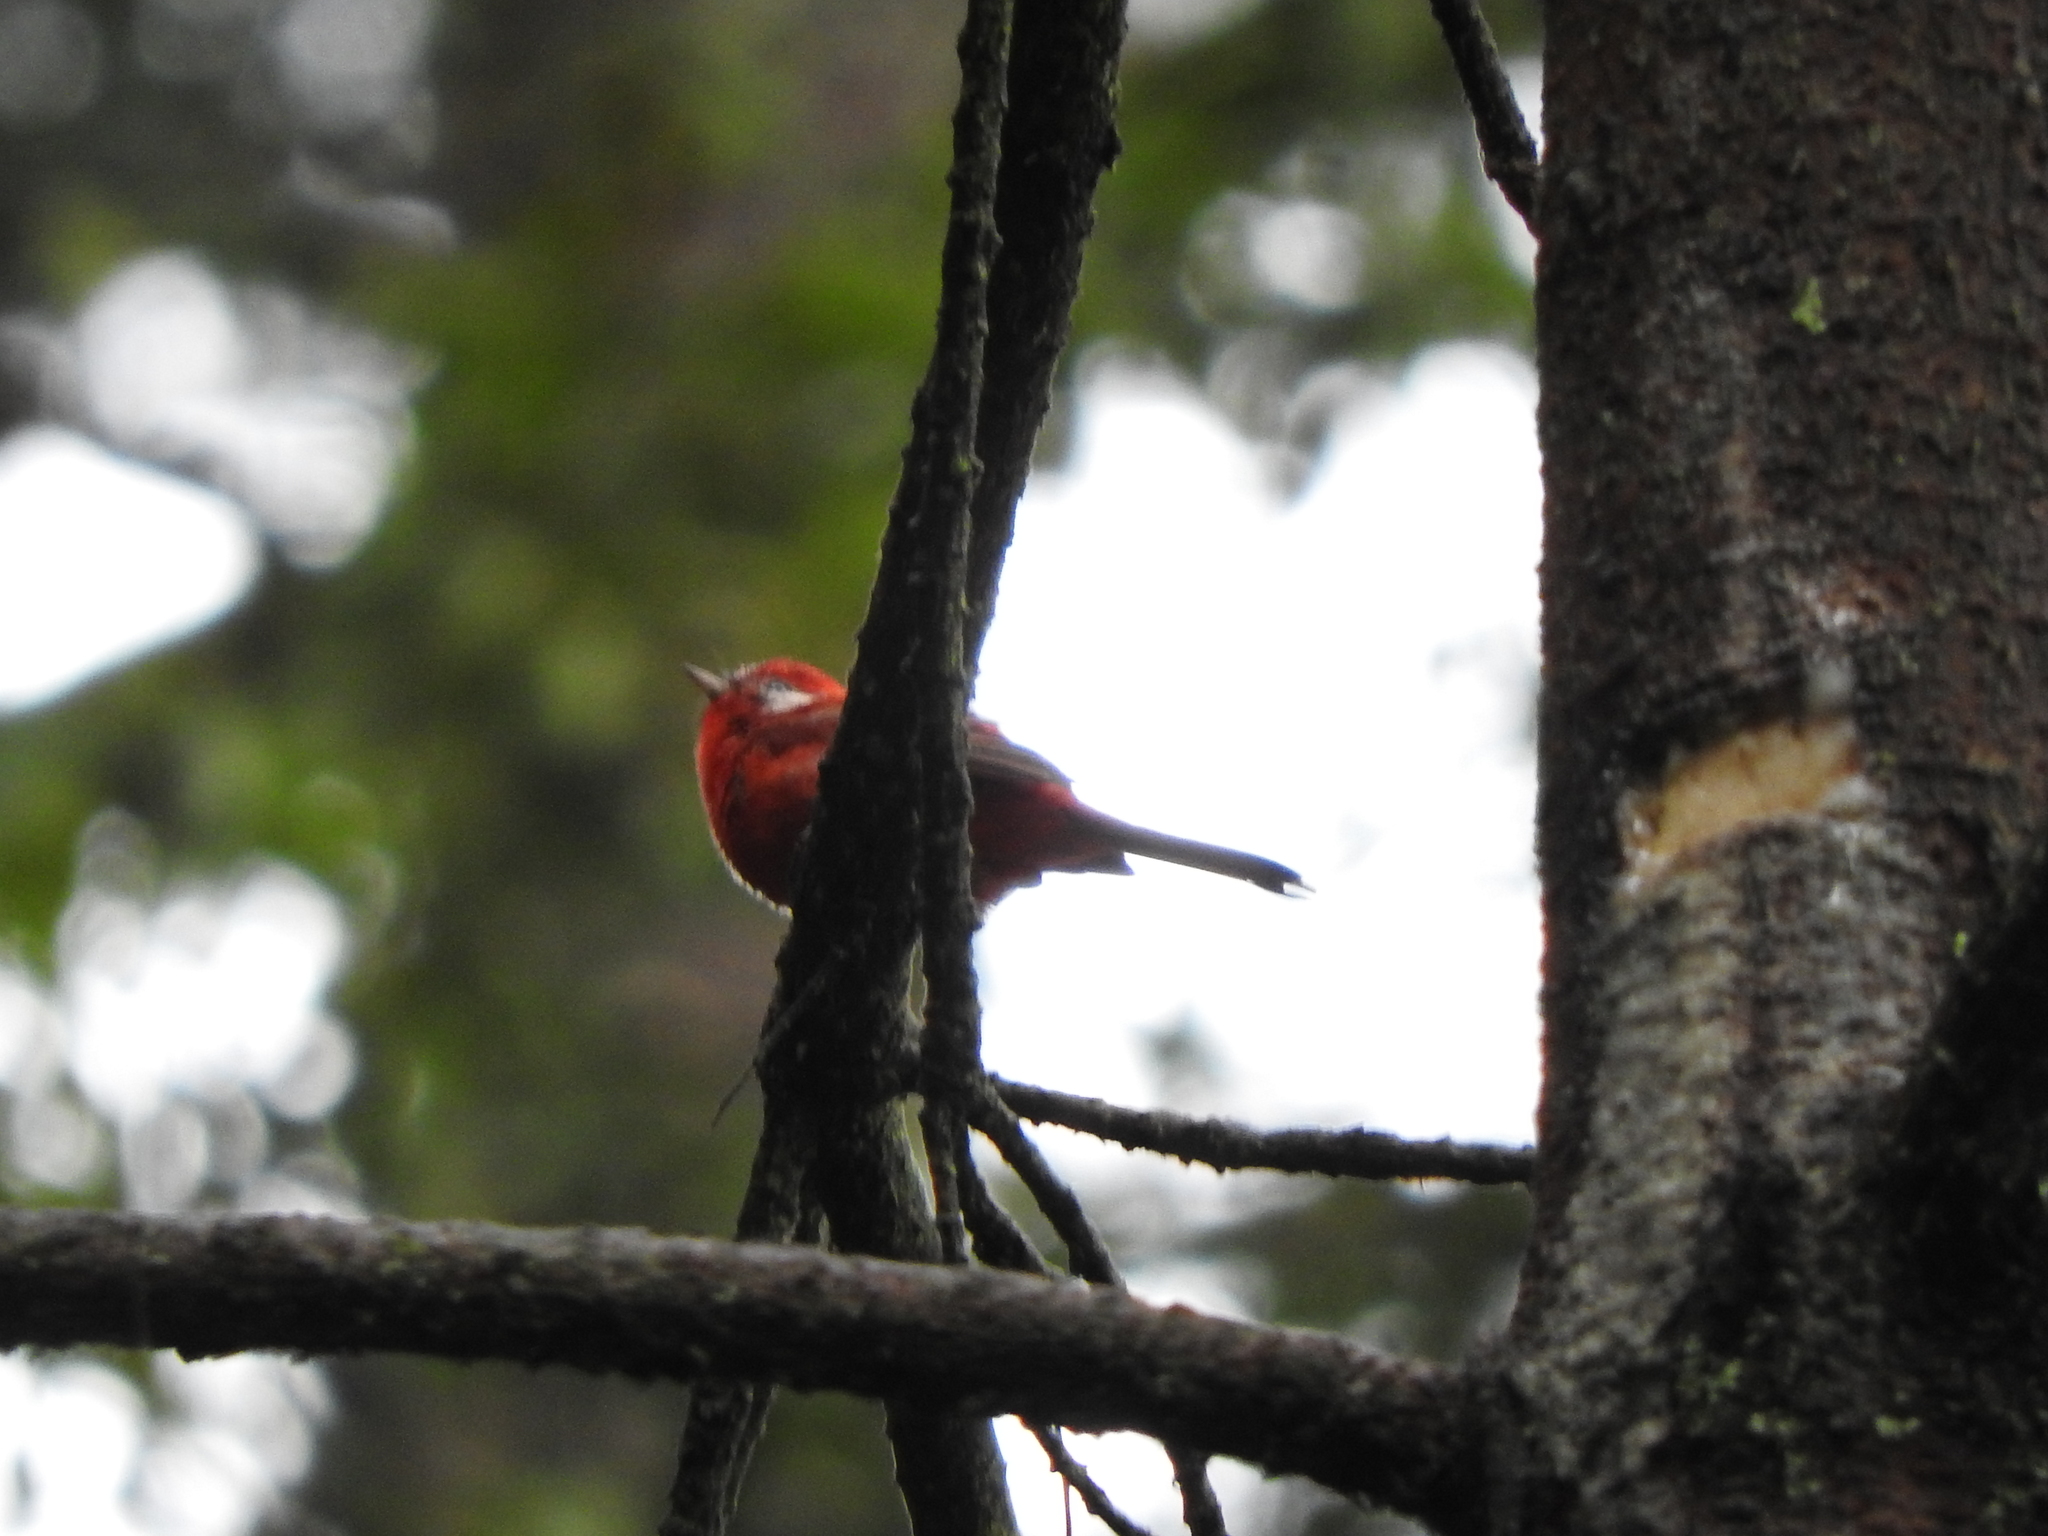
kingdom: Animalia
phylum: Chordata
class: Aves
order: Passeriformes
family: Parulidae
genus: Cardellina
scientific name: Cardellina rubra
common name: Red warbler
